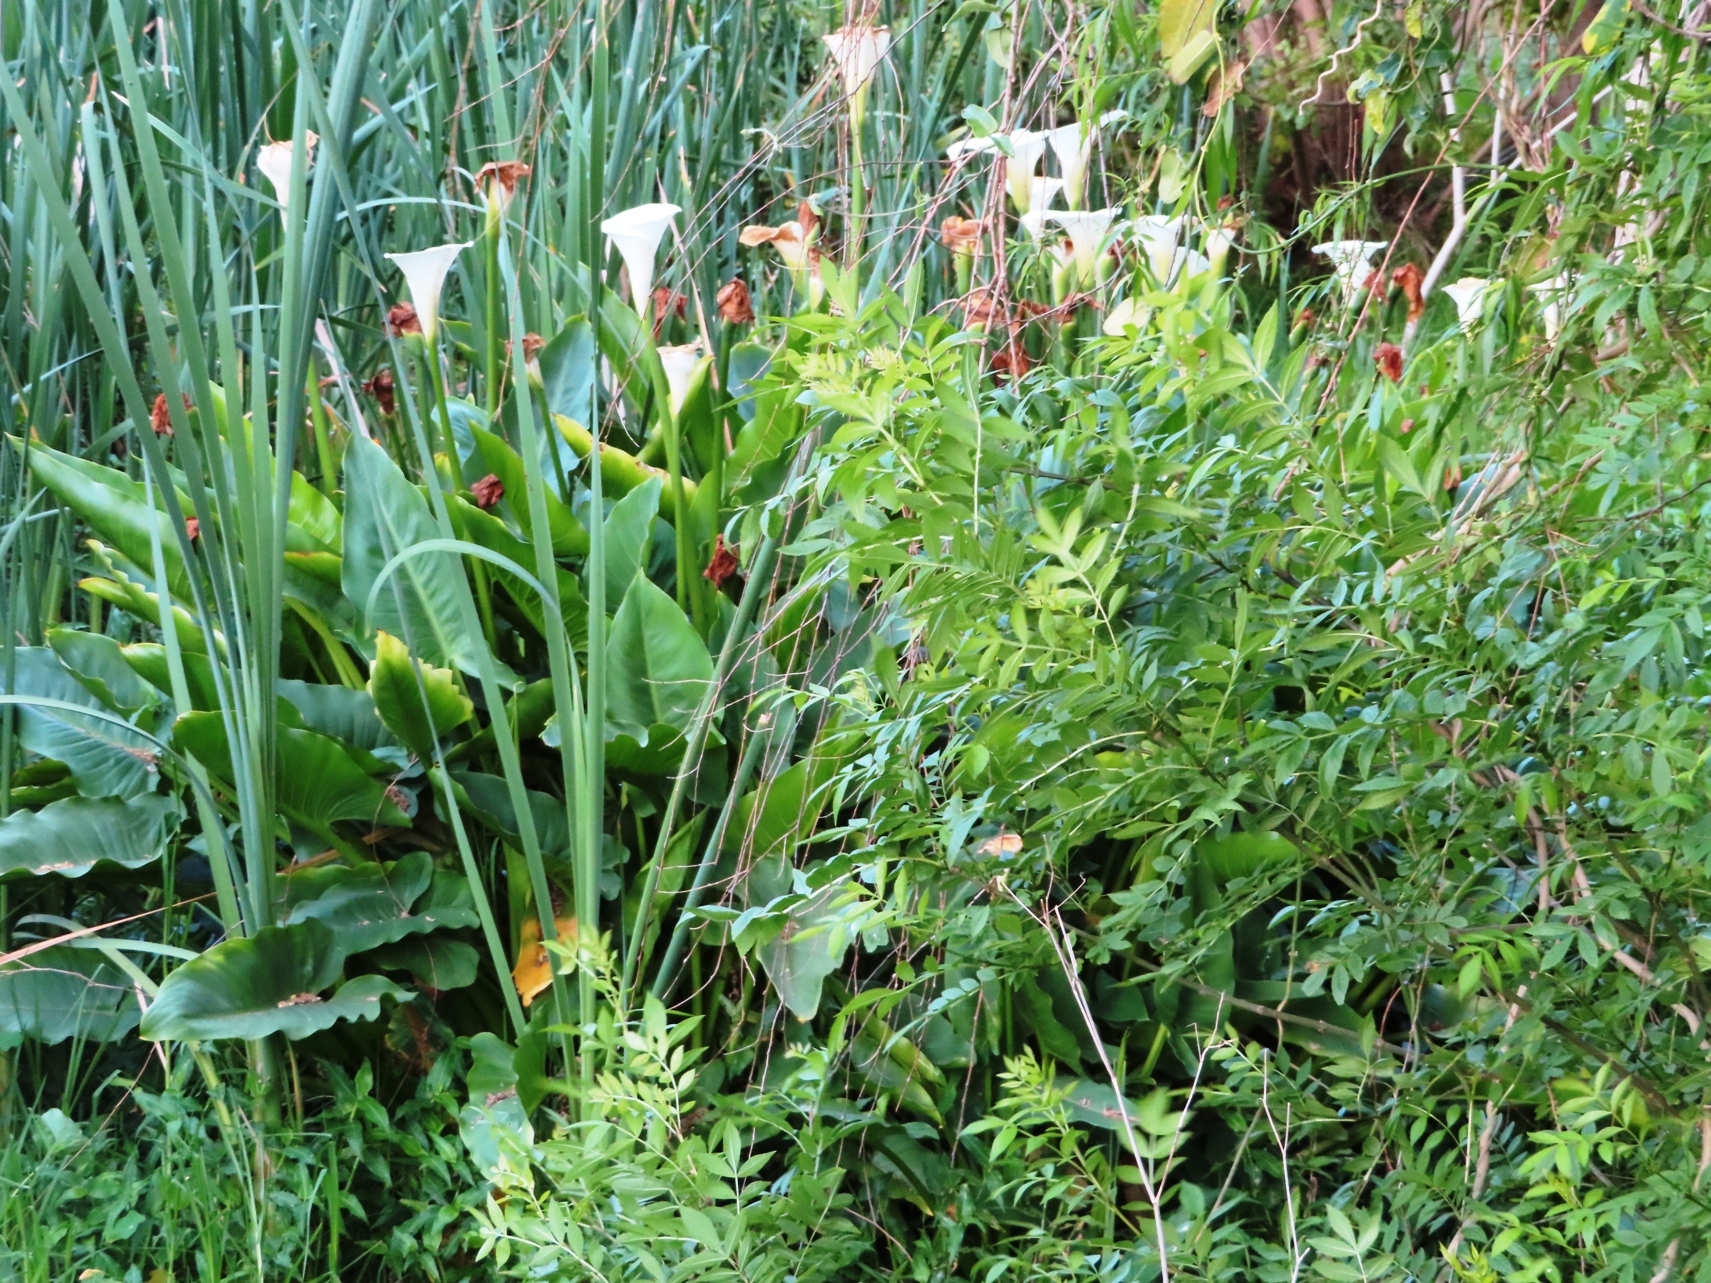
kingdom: Plantae
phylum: Tracheophyta
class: Liliopsida
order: Alismatales
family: Araceae
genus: Zantedeschia
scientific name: Zantedeschia aethiopica
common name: Altar-lily
